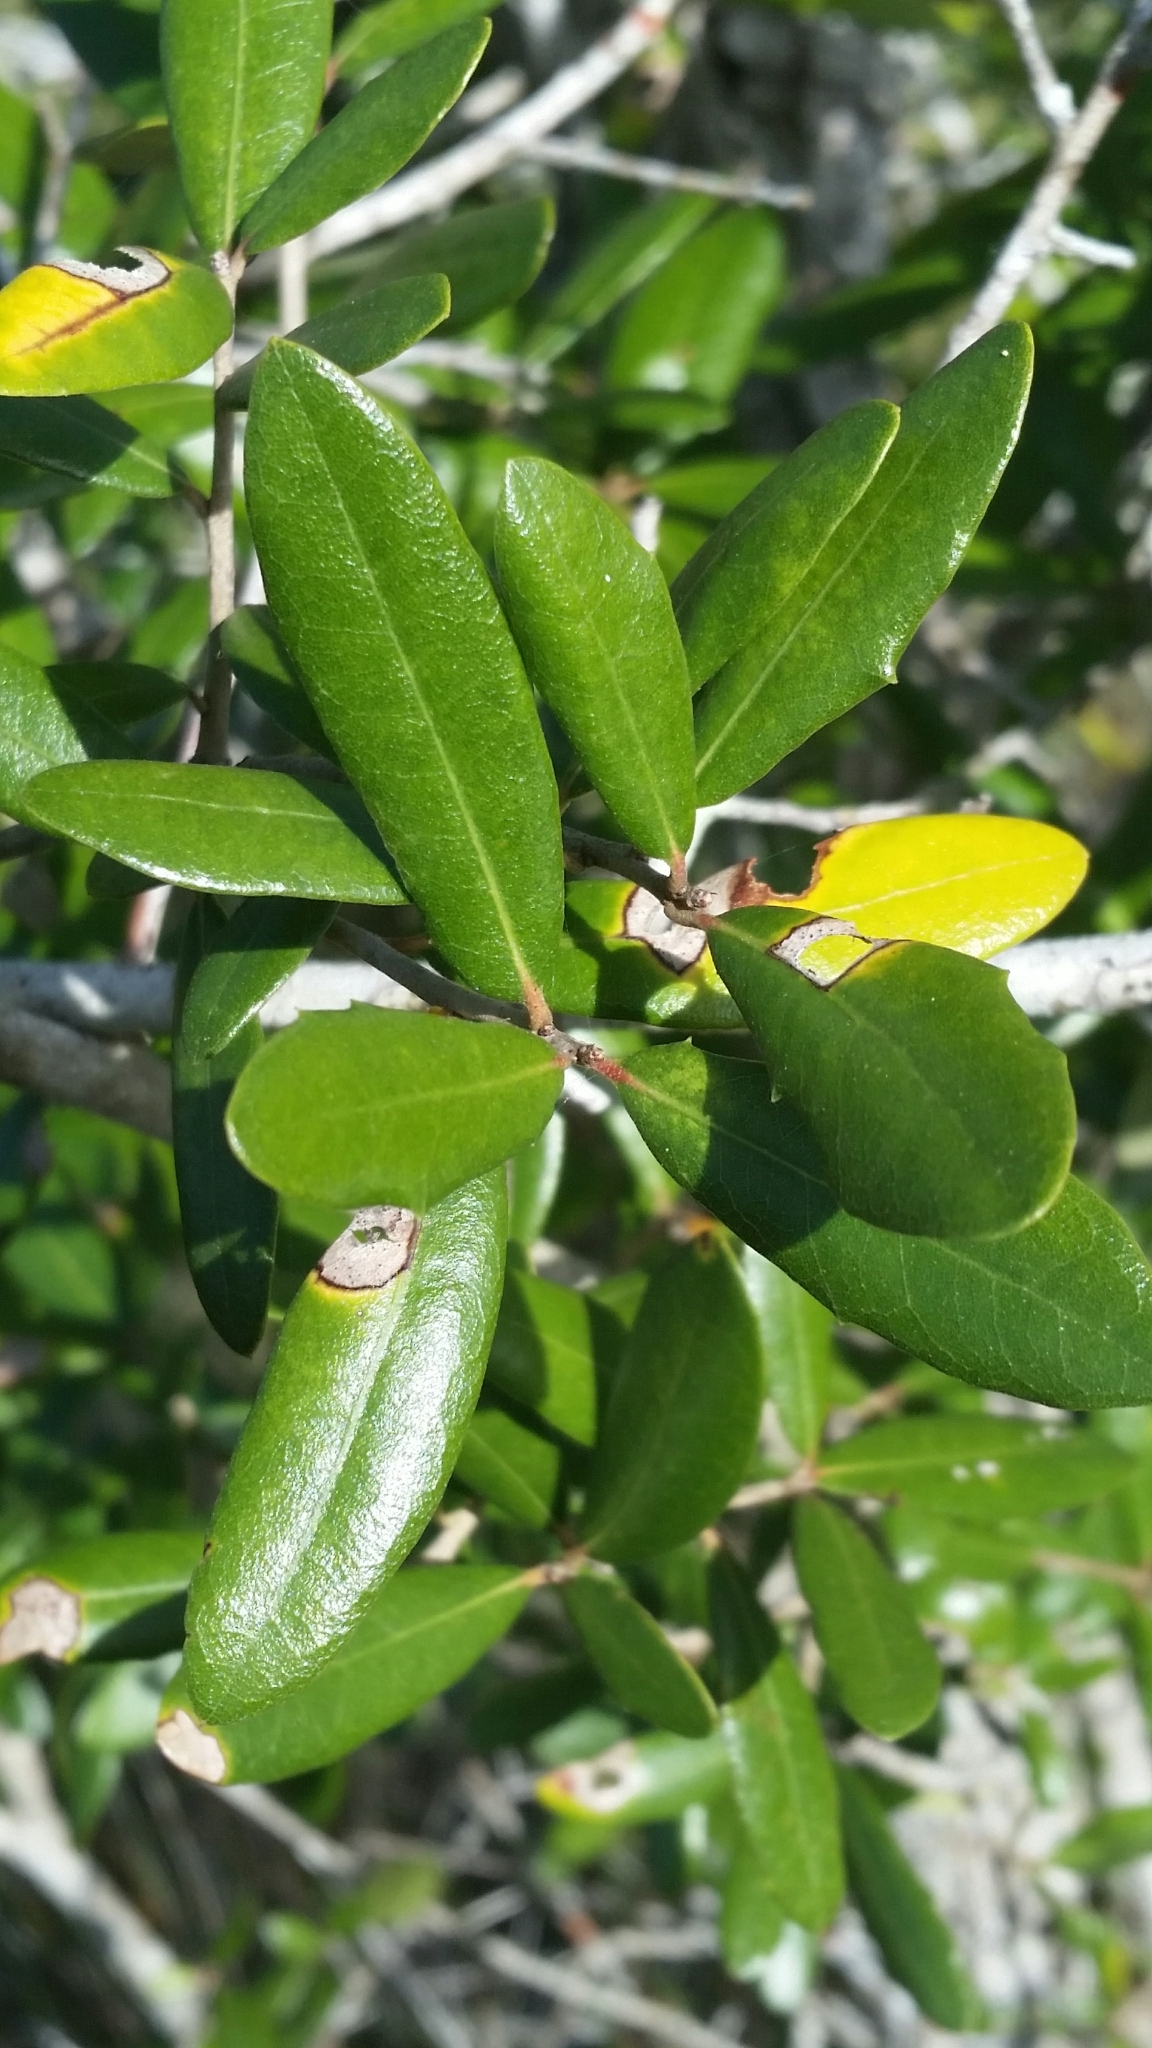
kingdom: Plantae
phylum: Tracheophyta
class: Magnoliopsida
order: Fagales
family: Fagaceae
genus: Quercus
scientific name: Quercus virginiana
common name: Southern live oak
